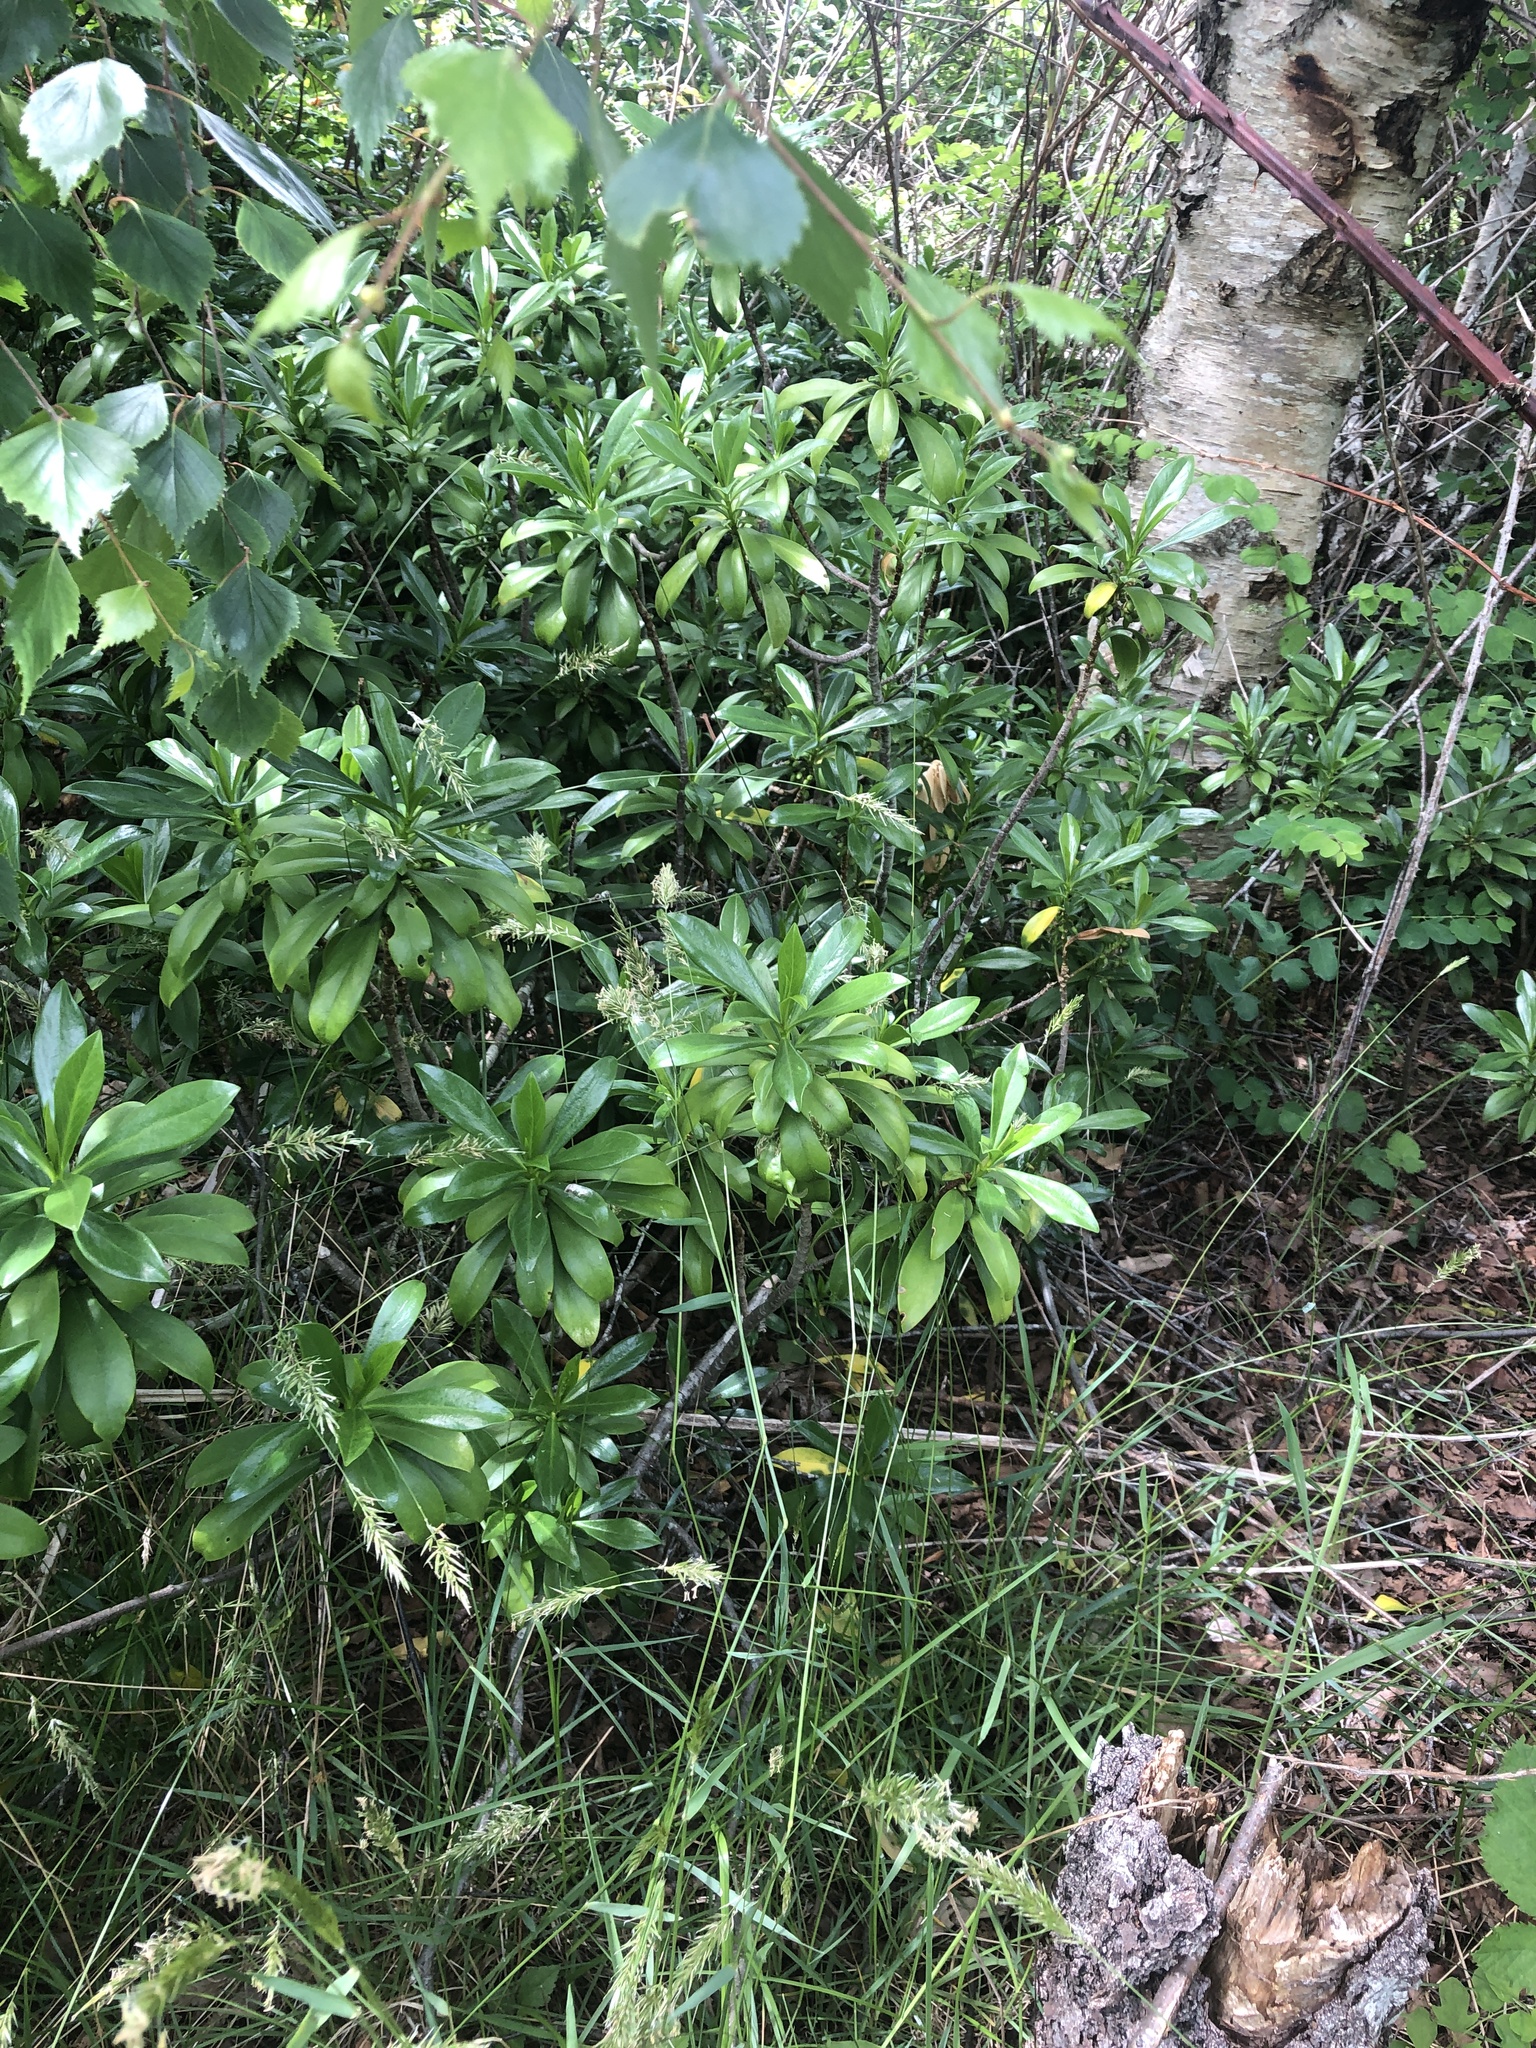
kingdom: Plantae
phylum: Tracheophyta
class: Magnoliopsida
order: Malvales
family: Thymelaeaceae
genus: Daphne
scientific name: Daphne laureola
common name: Spurge-laurel
